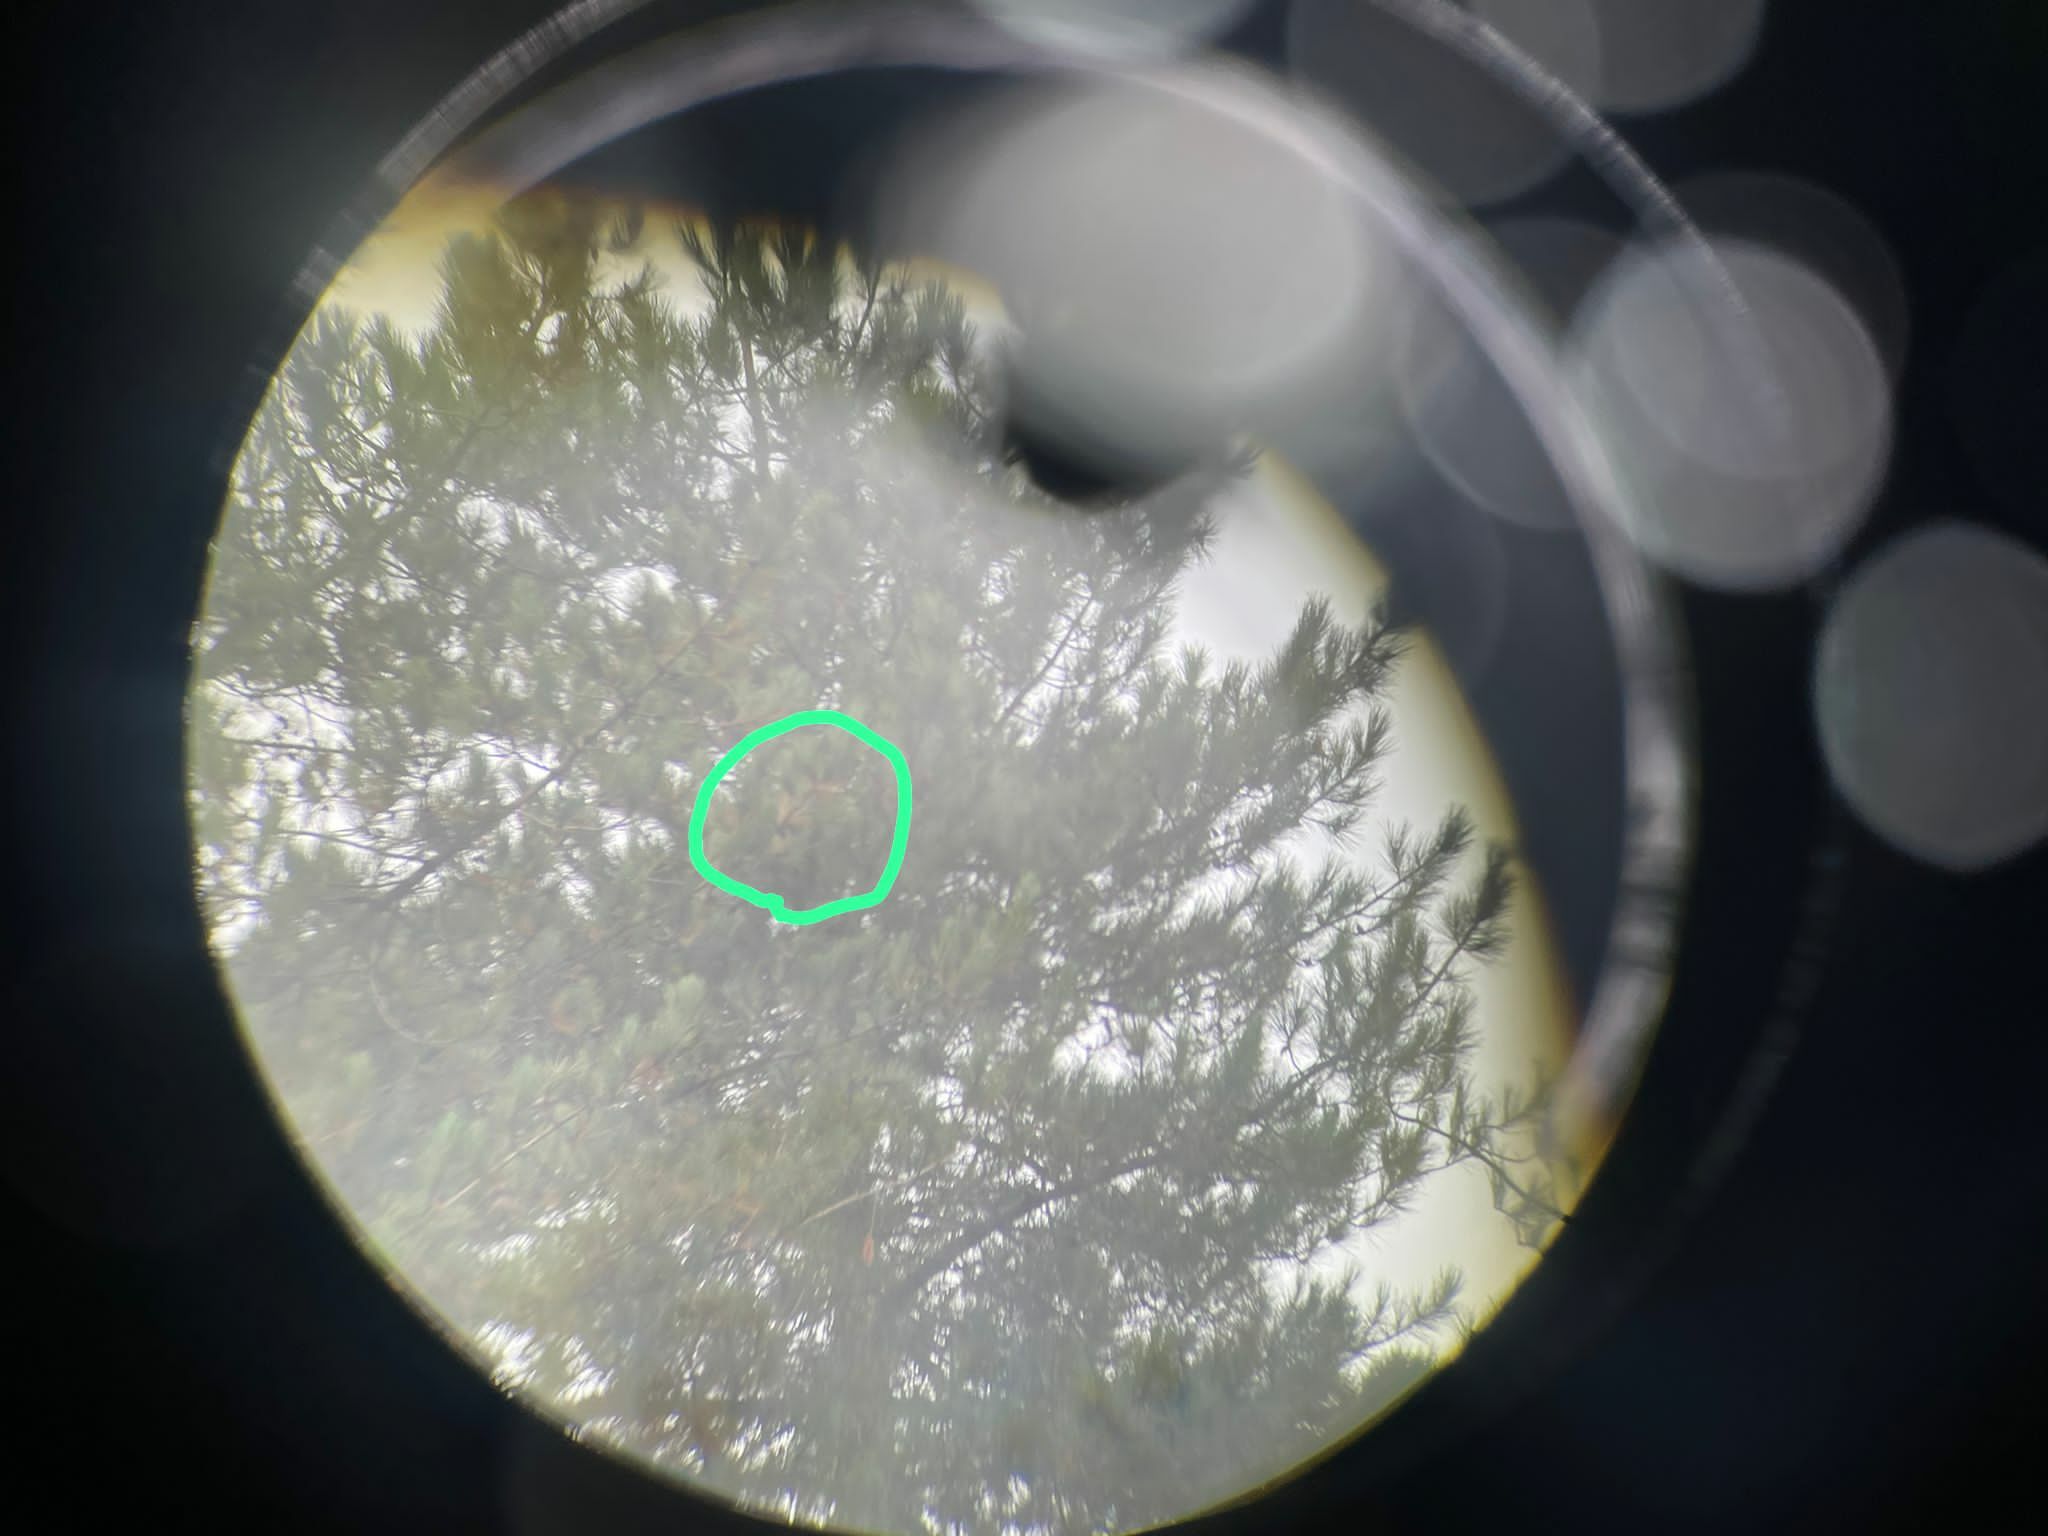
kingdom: Animalia
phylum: Arthropoda
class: Insecta
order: Hymenoptera
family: Vespidae
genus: Vespa
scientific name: Vespa velutina
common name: Asian hornet
